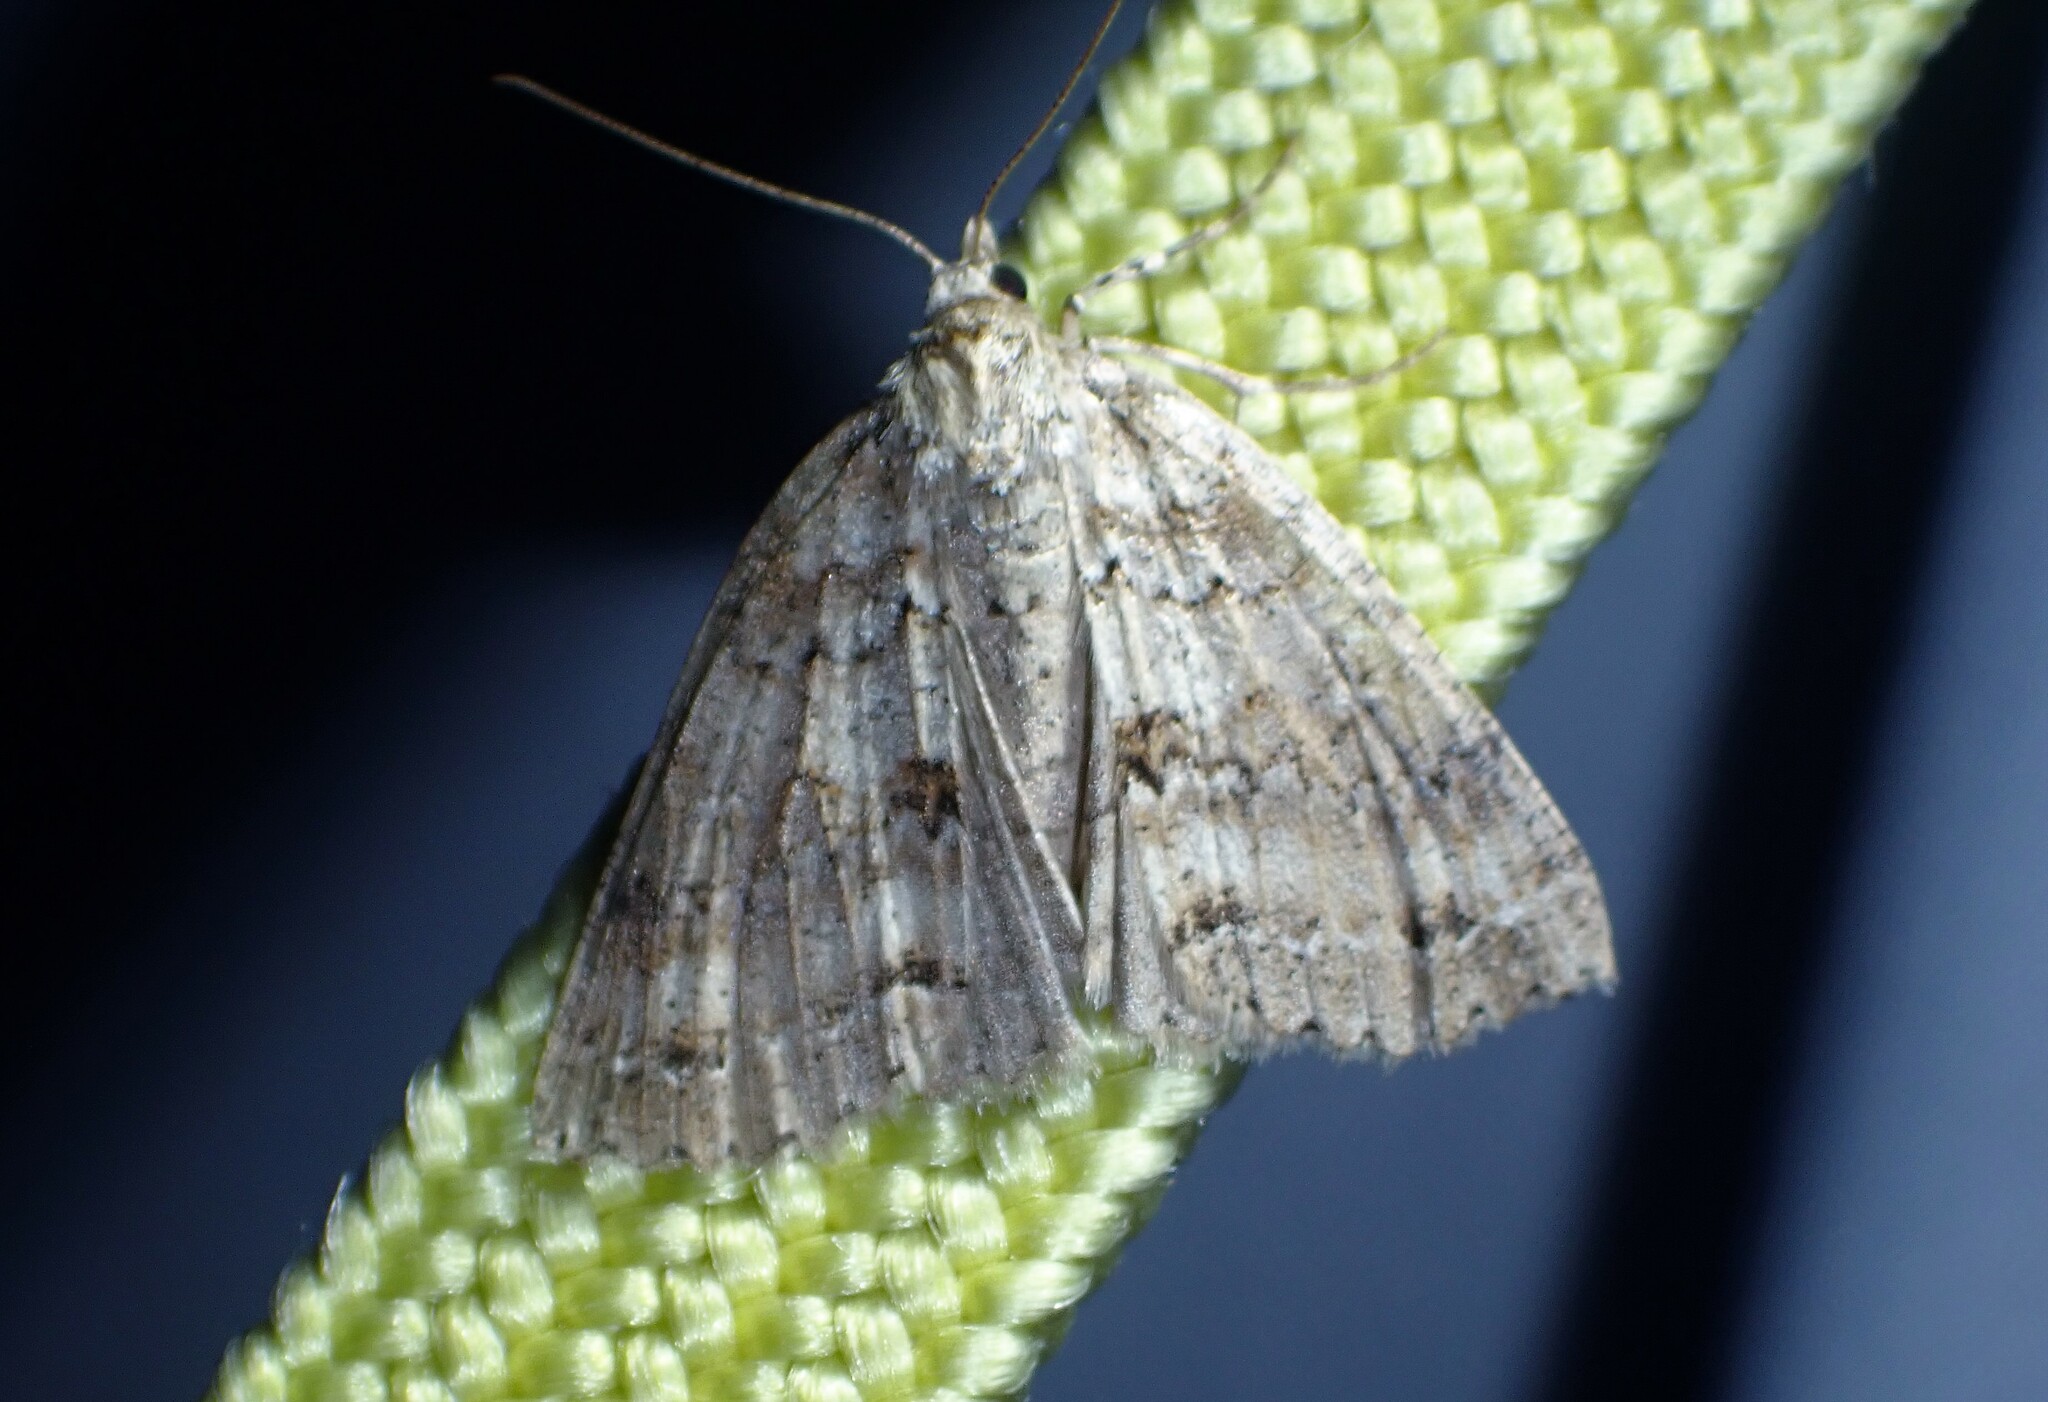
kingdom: Animalia
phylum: Arthropoda
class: Insecta
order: Lepidoptera
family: Geometridae
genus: Ascotis
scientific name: Ascotis fortunata
